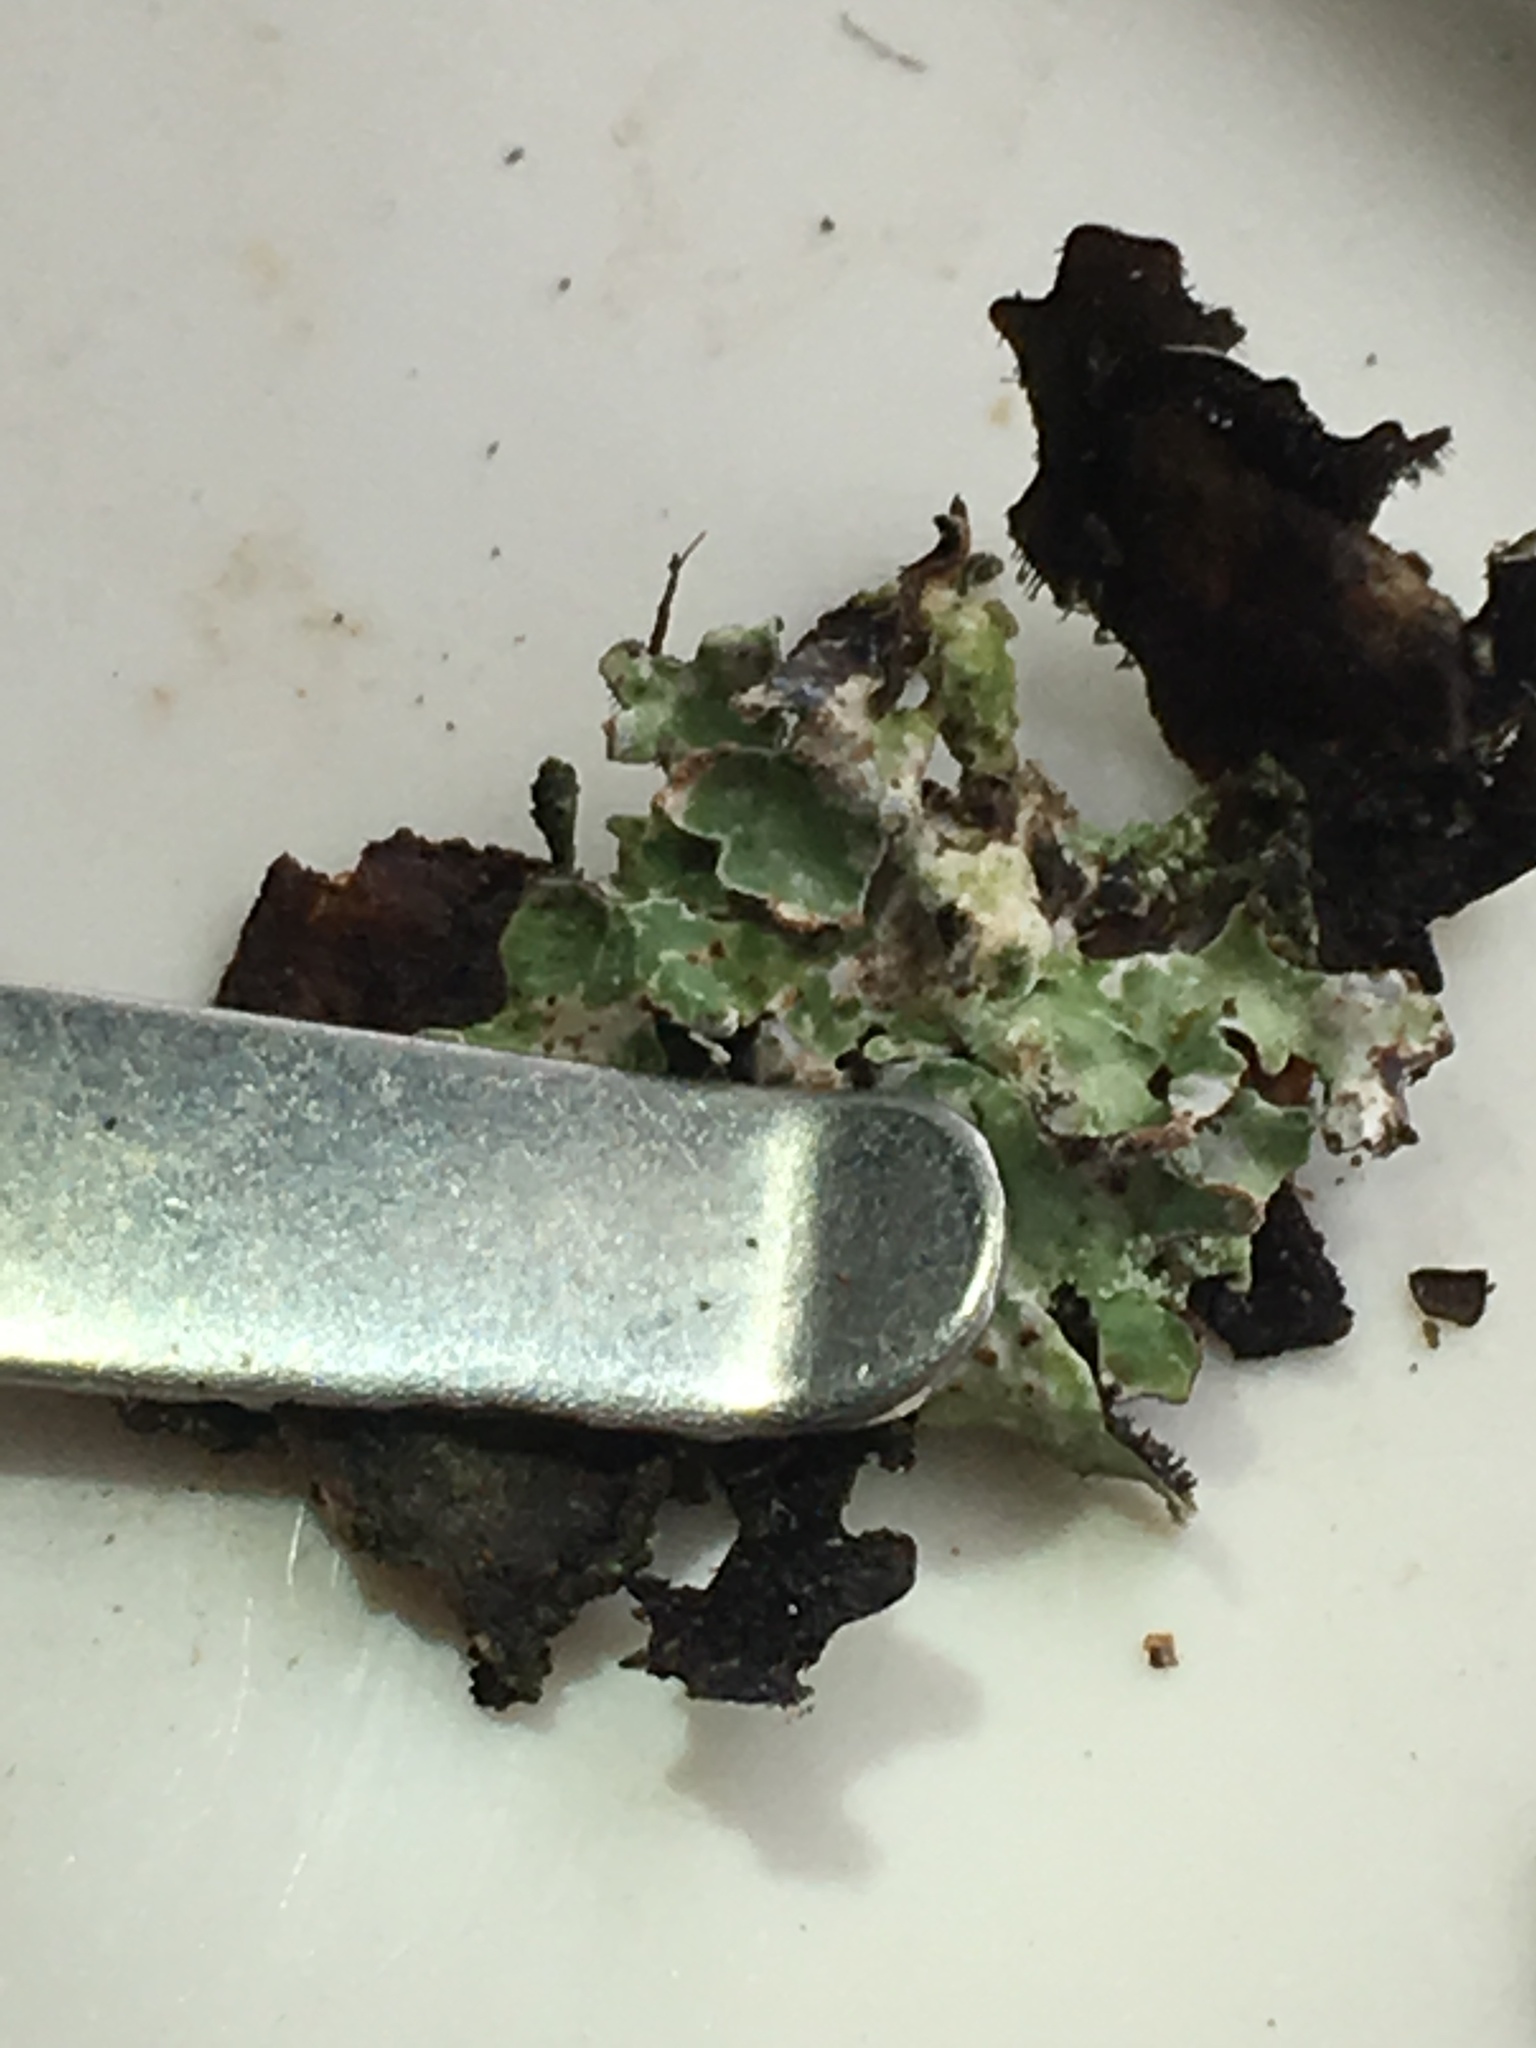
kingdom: Fungi
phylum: Ascomycota
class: Lecanoromycetes
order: Lecanorales
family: Parmeliaceae
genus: Parmelia
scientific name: Parmelia sulcata
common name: Netted shield lichen
